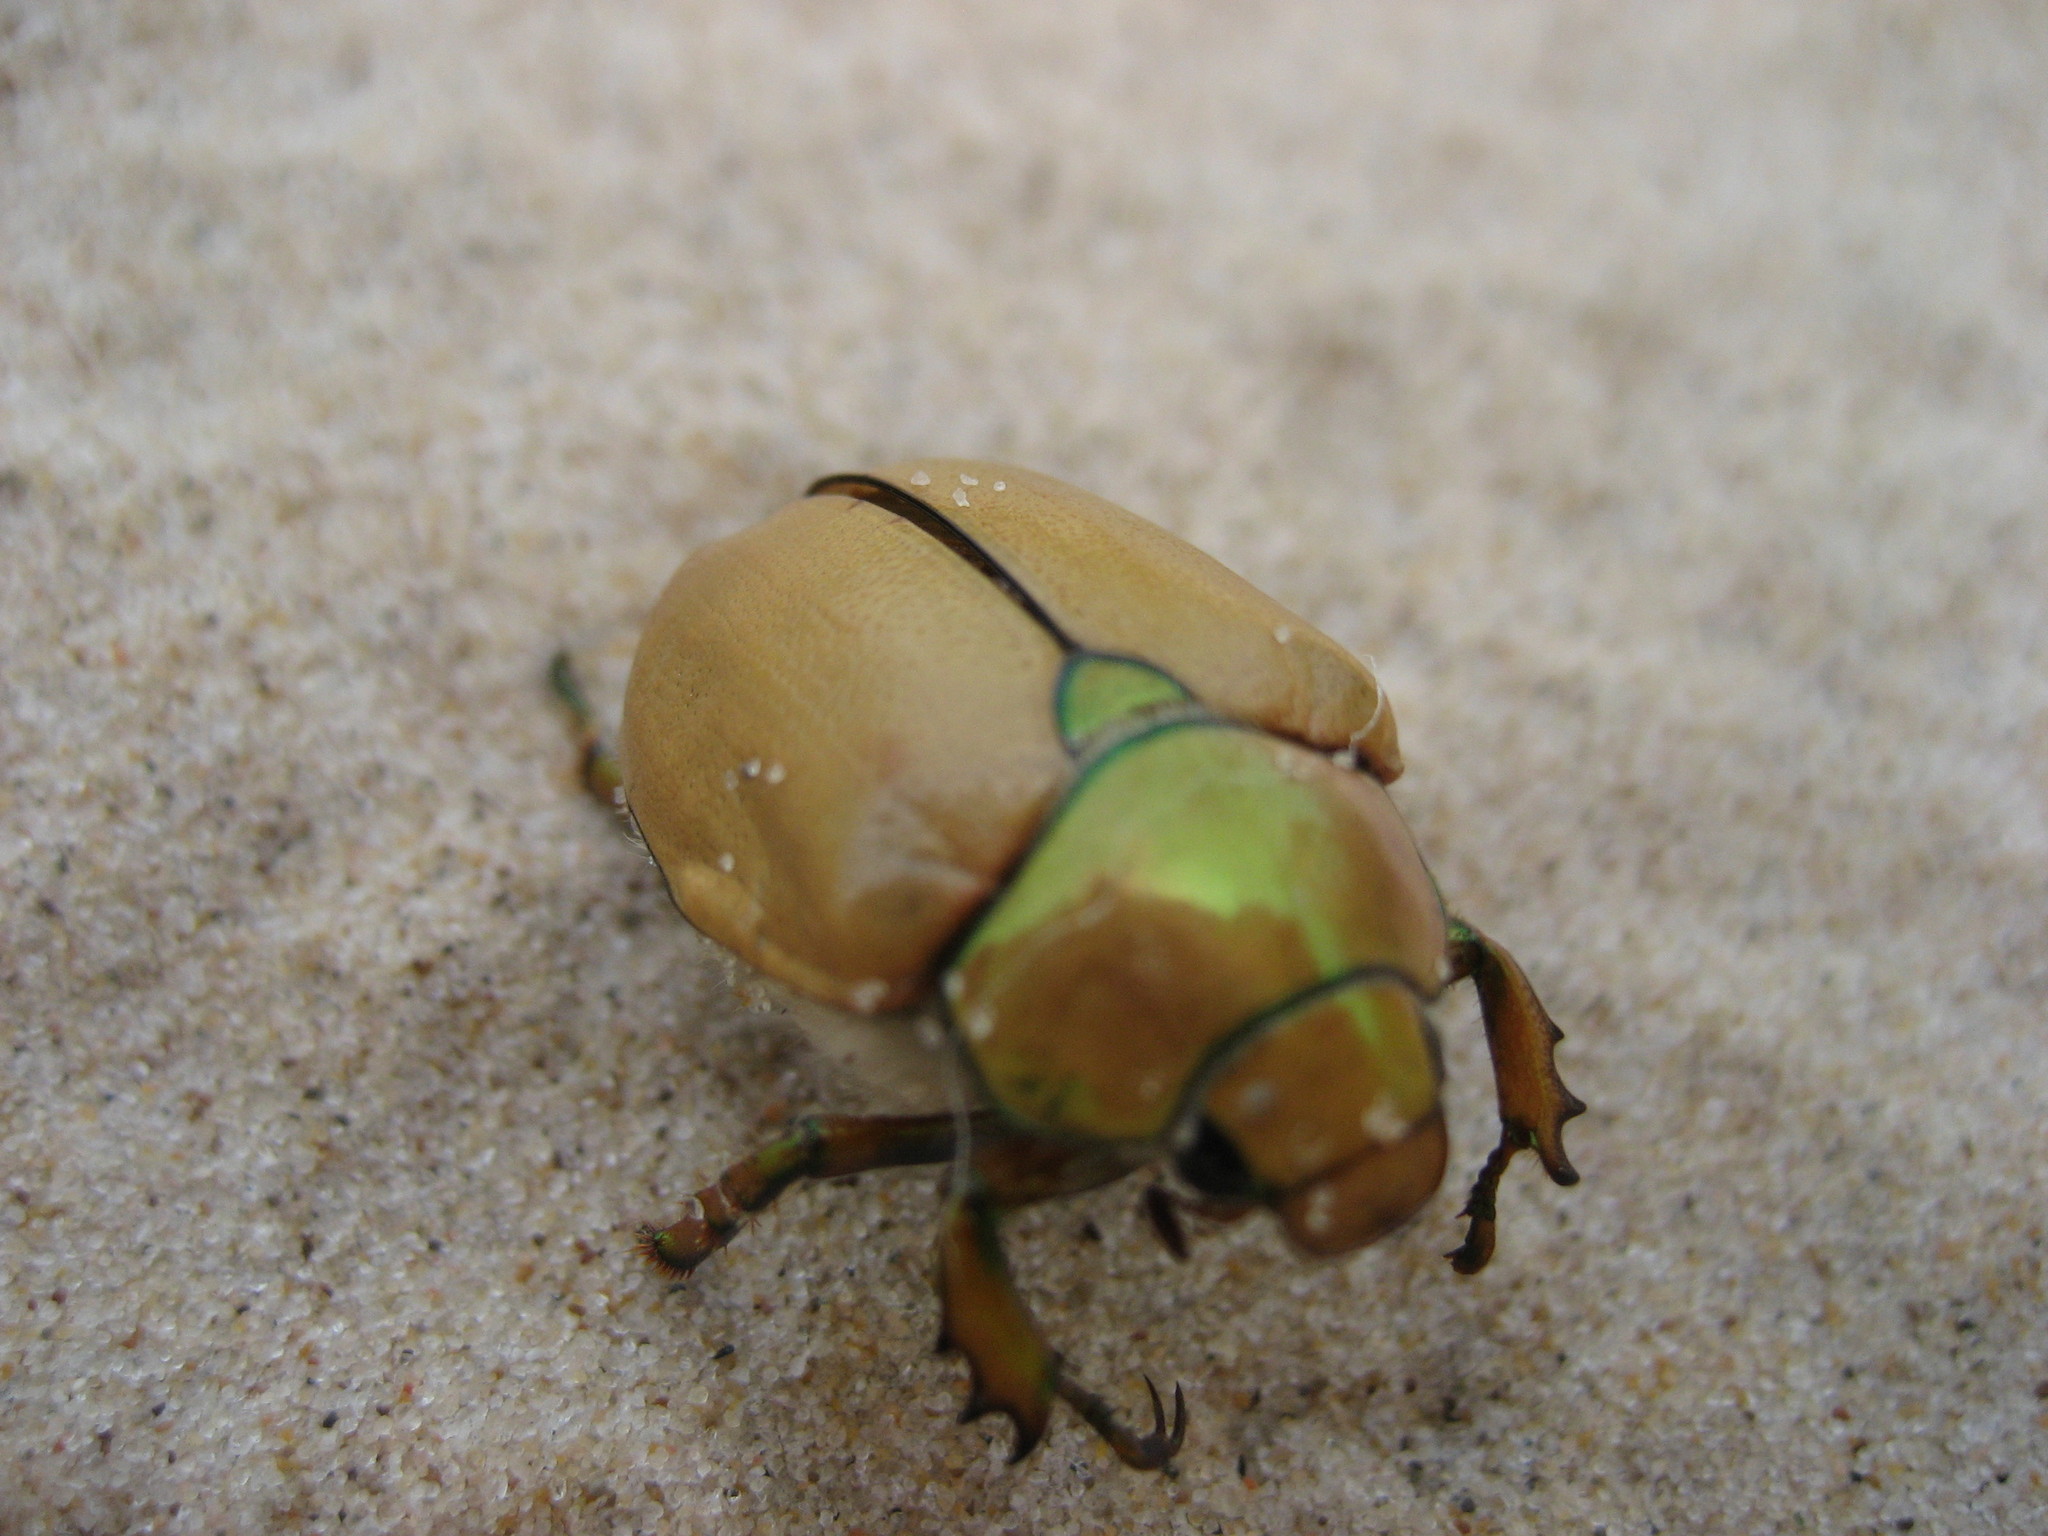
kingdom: Animalia
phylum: Arthropoda
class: Insecta
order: Coleoptera
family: Scarabaeidae
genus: Cotalpa
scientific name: Cotalpa lanigera
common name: Goldsmith beetle
